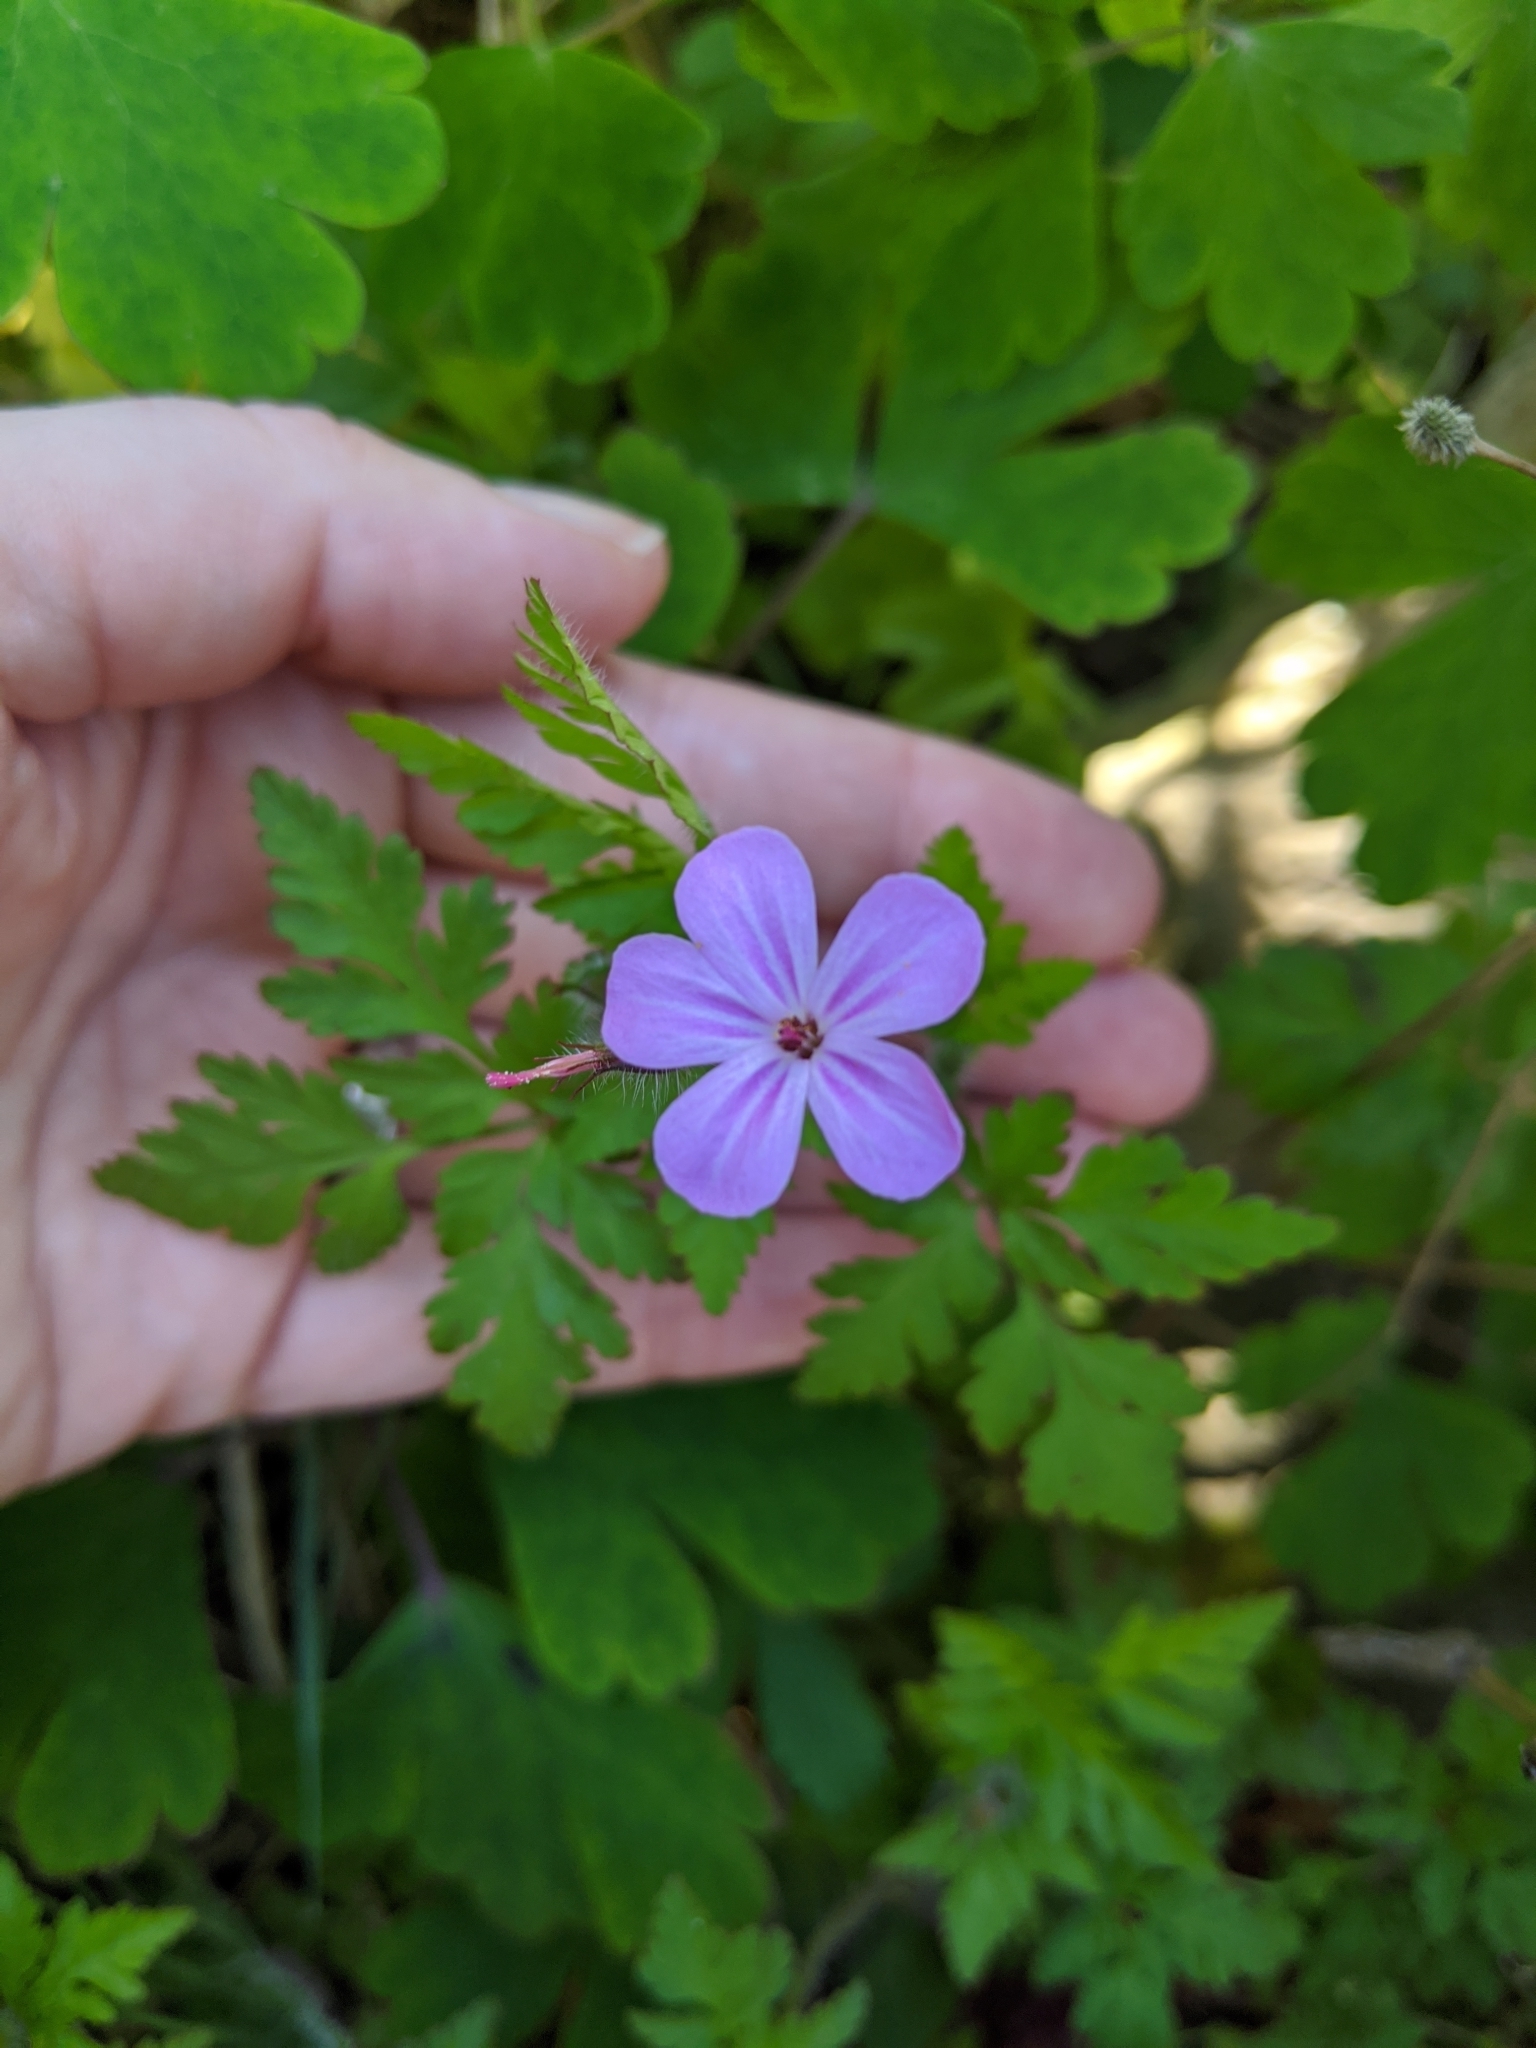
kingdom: Plantae
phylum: Tracheophyta
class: Magnoliopsida
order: Geraniales
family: Geraniaceae
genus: Geranium
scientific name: Geranium robertianum
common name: Herb-robert
